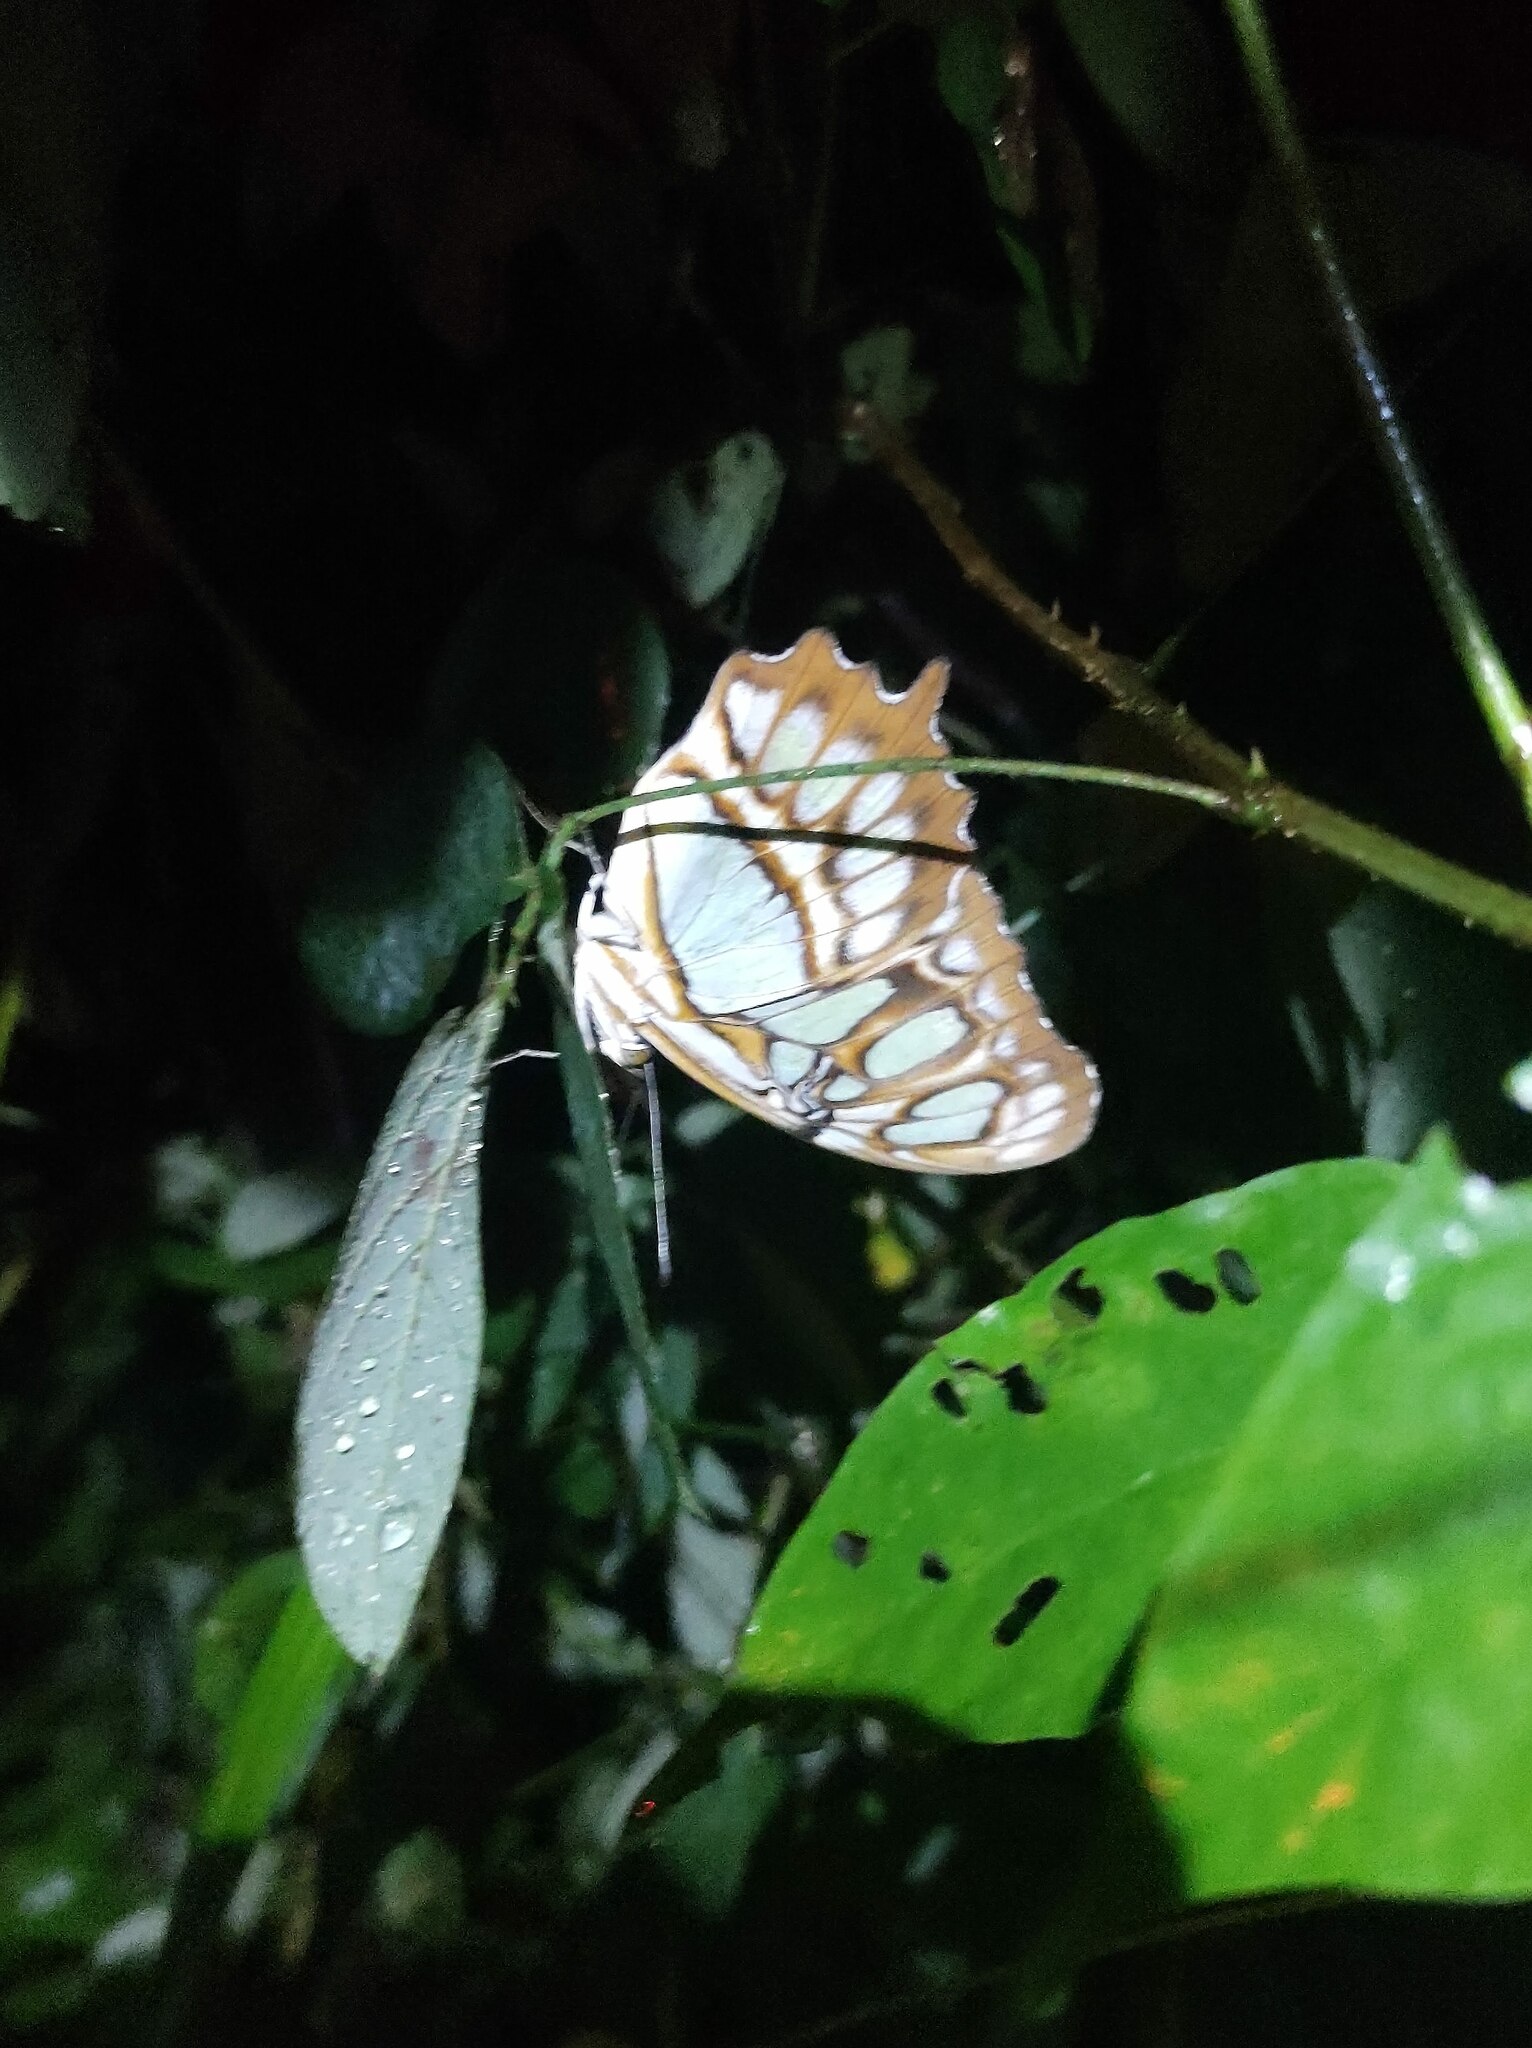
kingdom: Animalia
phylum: Arthropoda
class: Insecta
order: Lepidoptera
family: Nymphalidae
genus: Siproeta
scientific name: Siproeta stelenes
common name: Malachite
